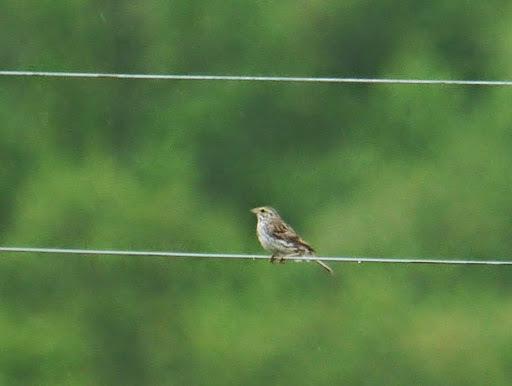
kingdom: Animalia
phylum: Chordata
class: Aves
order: Passeriformes
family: Passerellidae
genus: Passerculus
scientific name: Passerculus sandwichensis
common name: Savannah sparrow
